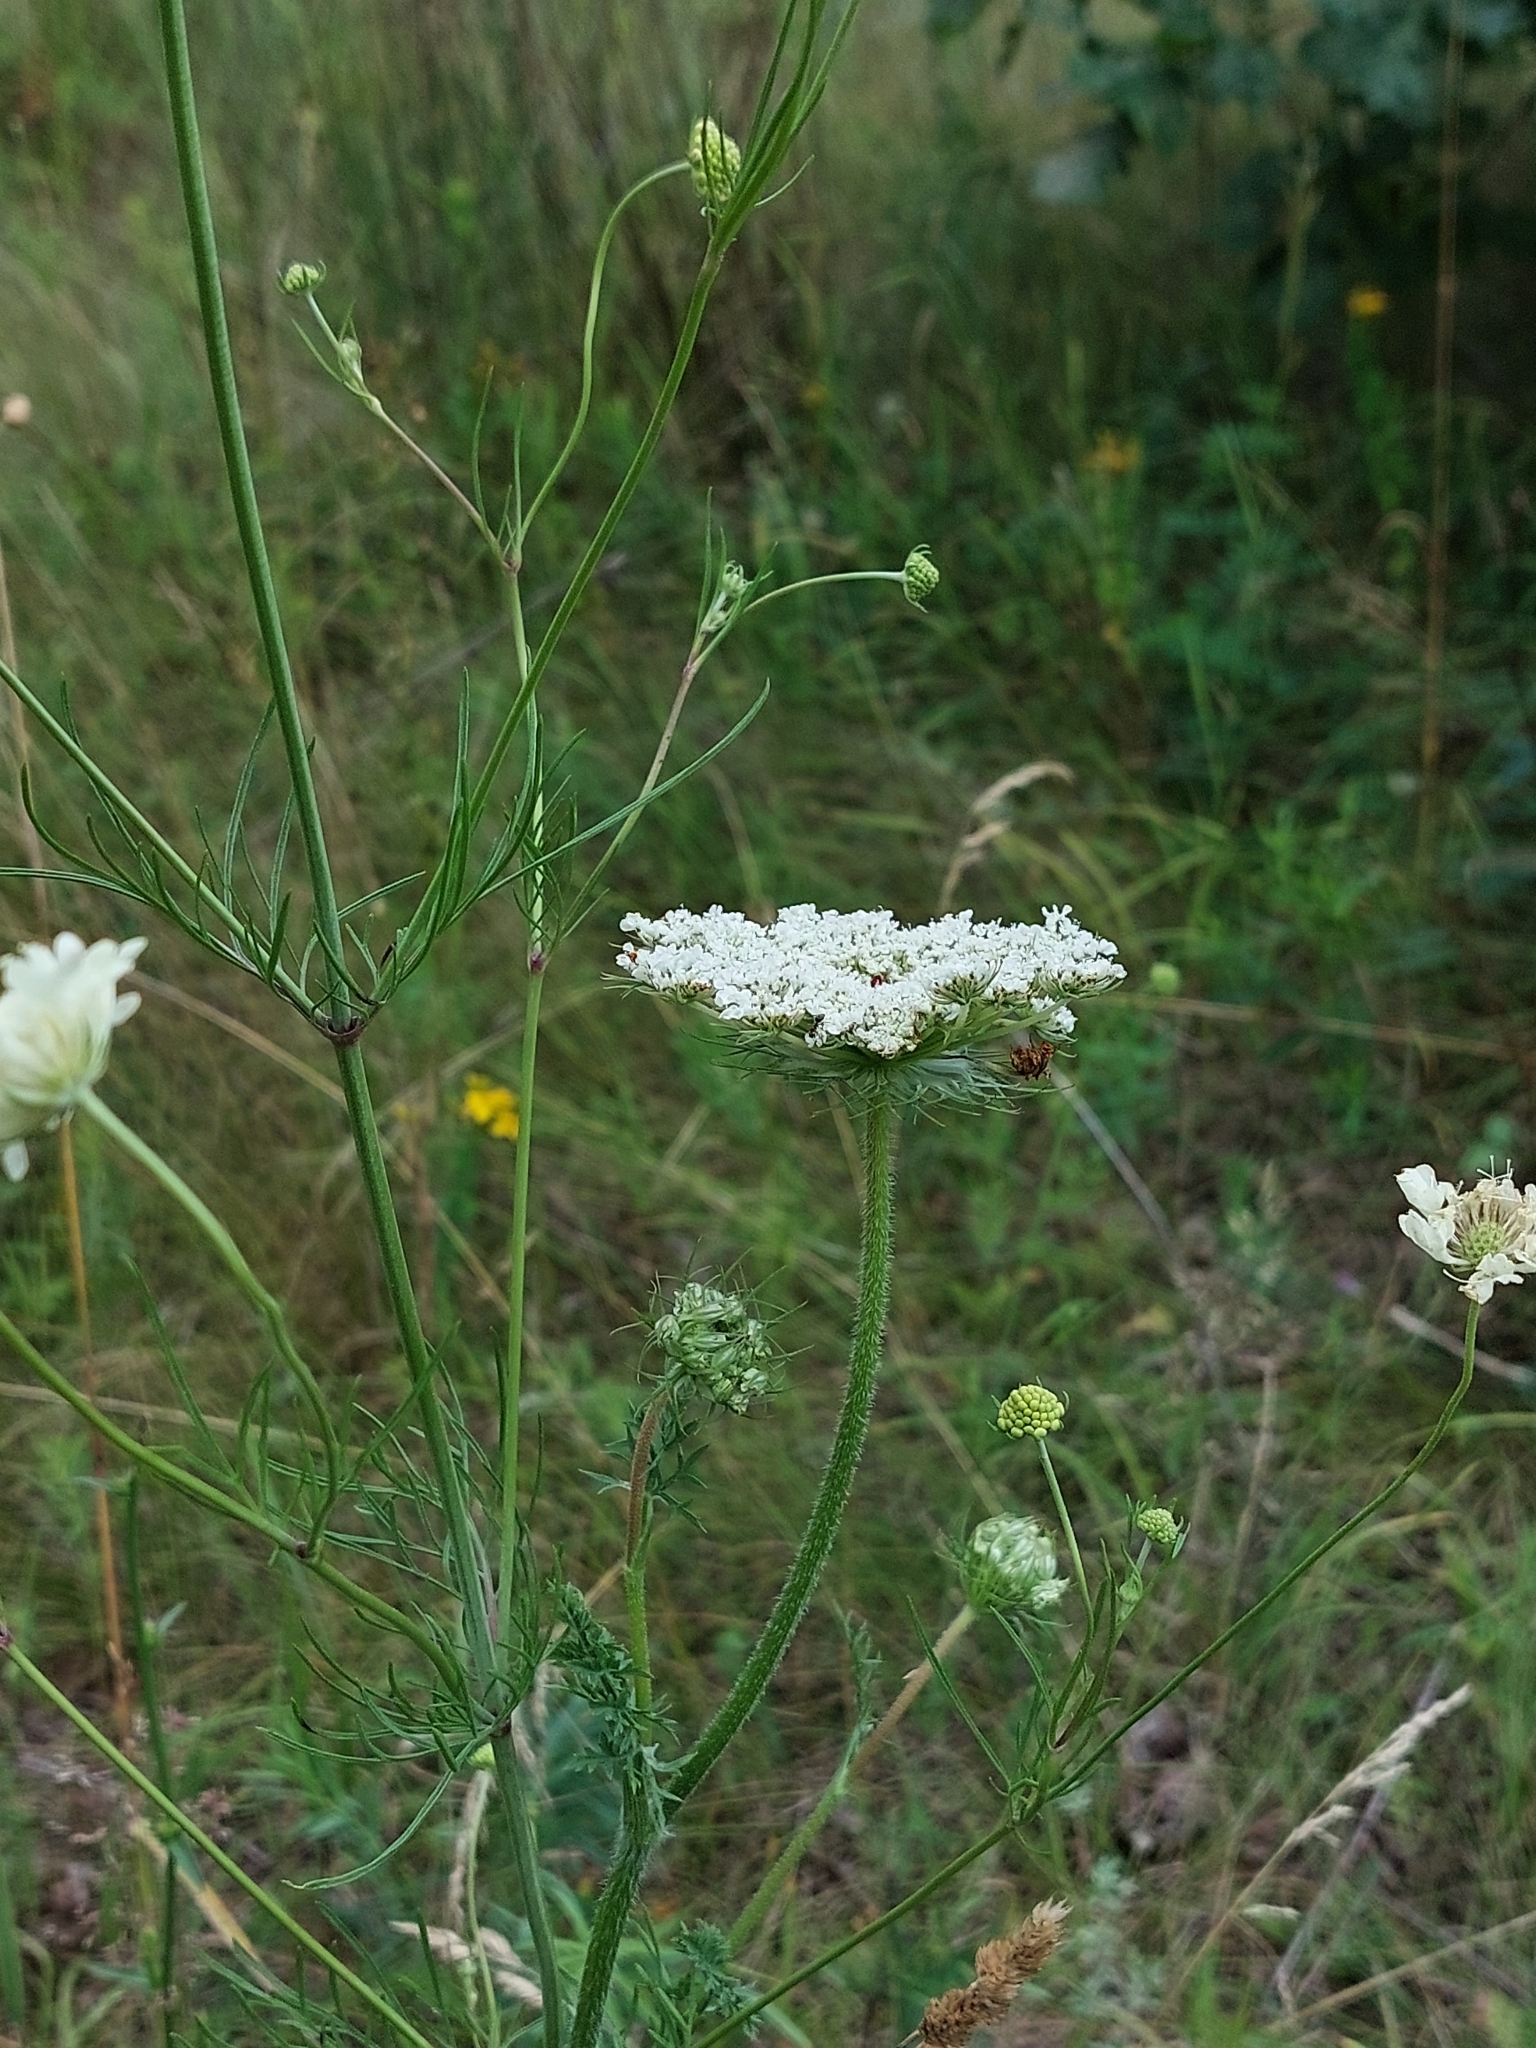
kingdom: Plantae
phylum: Tracheophyta
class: Magnoliopsida
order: Apiales
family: Apiaceae
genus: Daucus
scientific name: Daucus carota
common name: Wild carrot
